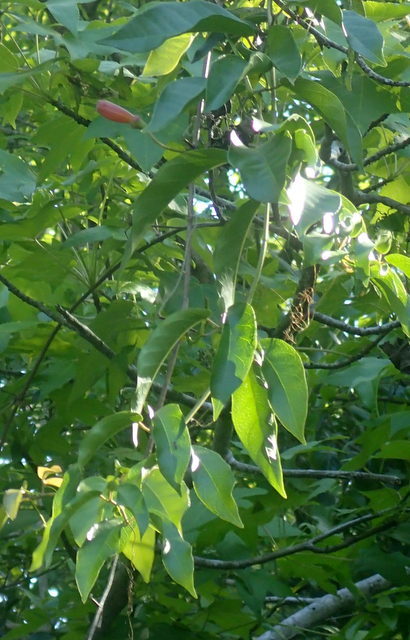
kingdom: Plantae
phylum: Tracheophyta
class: Magnoliopsida
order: Lamiales
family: Bignoniaceae
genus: Bignonia
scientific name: Bignonia capreolata
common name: Crossvine
